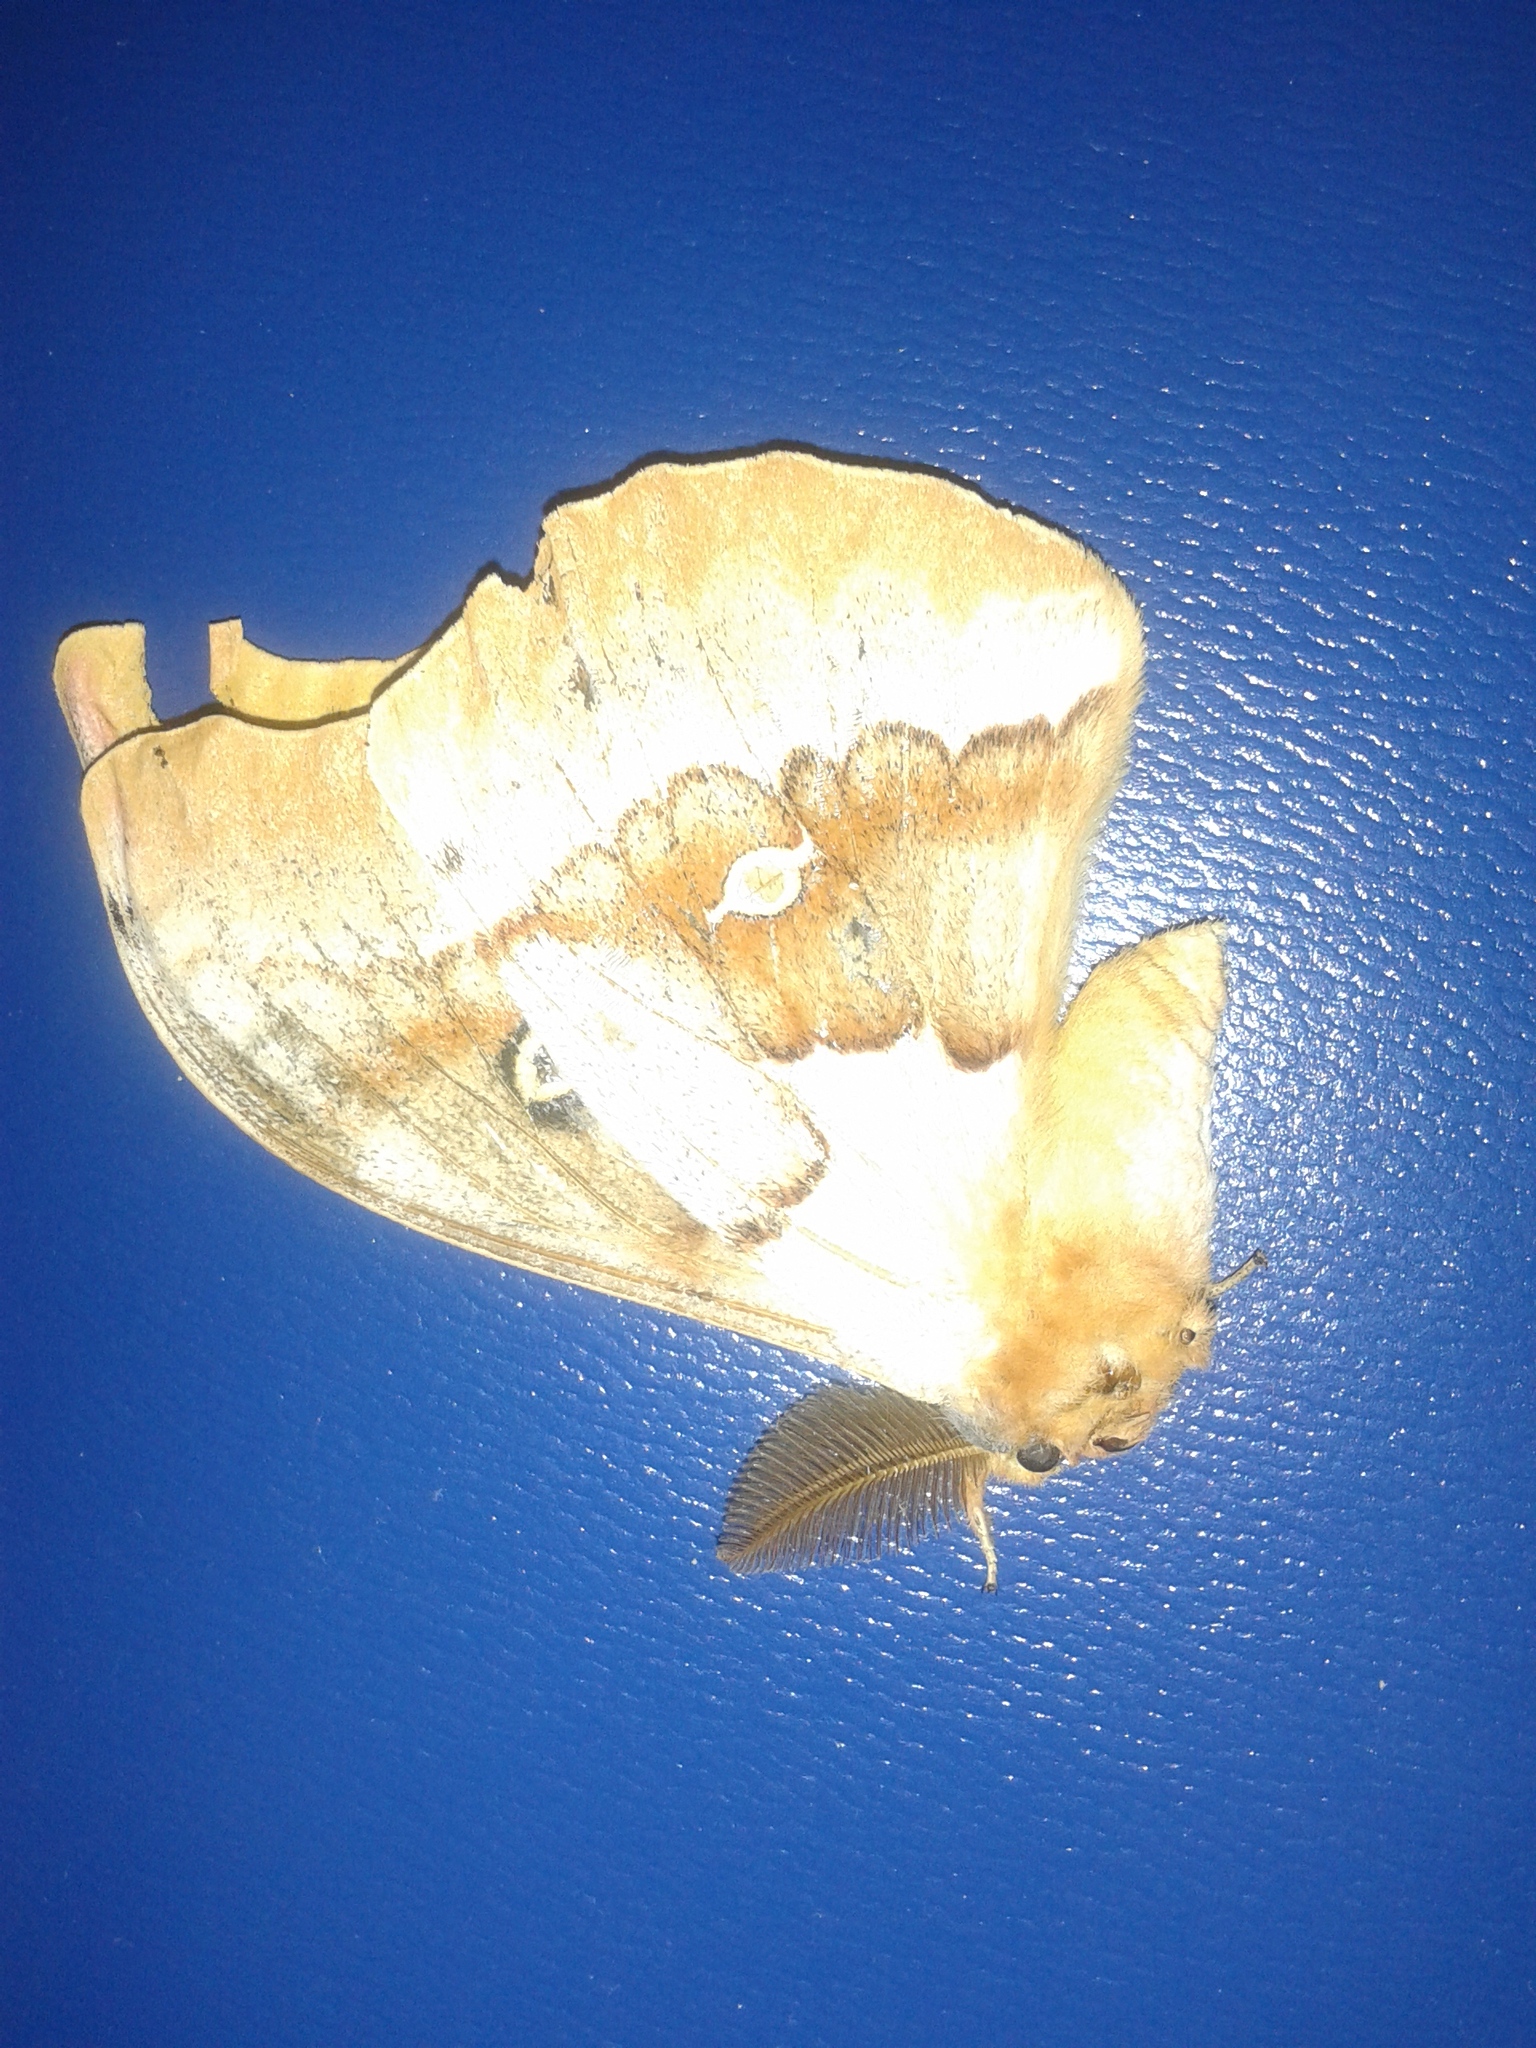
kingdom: Animalia
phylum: Arthropoda
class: Insecta
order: Lepidoptera
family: Saturniidae
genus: Antheraea
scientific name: Antheraea polyphemus
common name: Polyphemus moth
